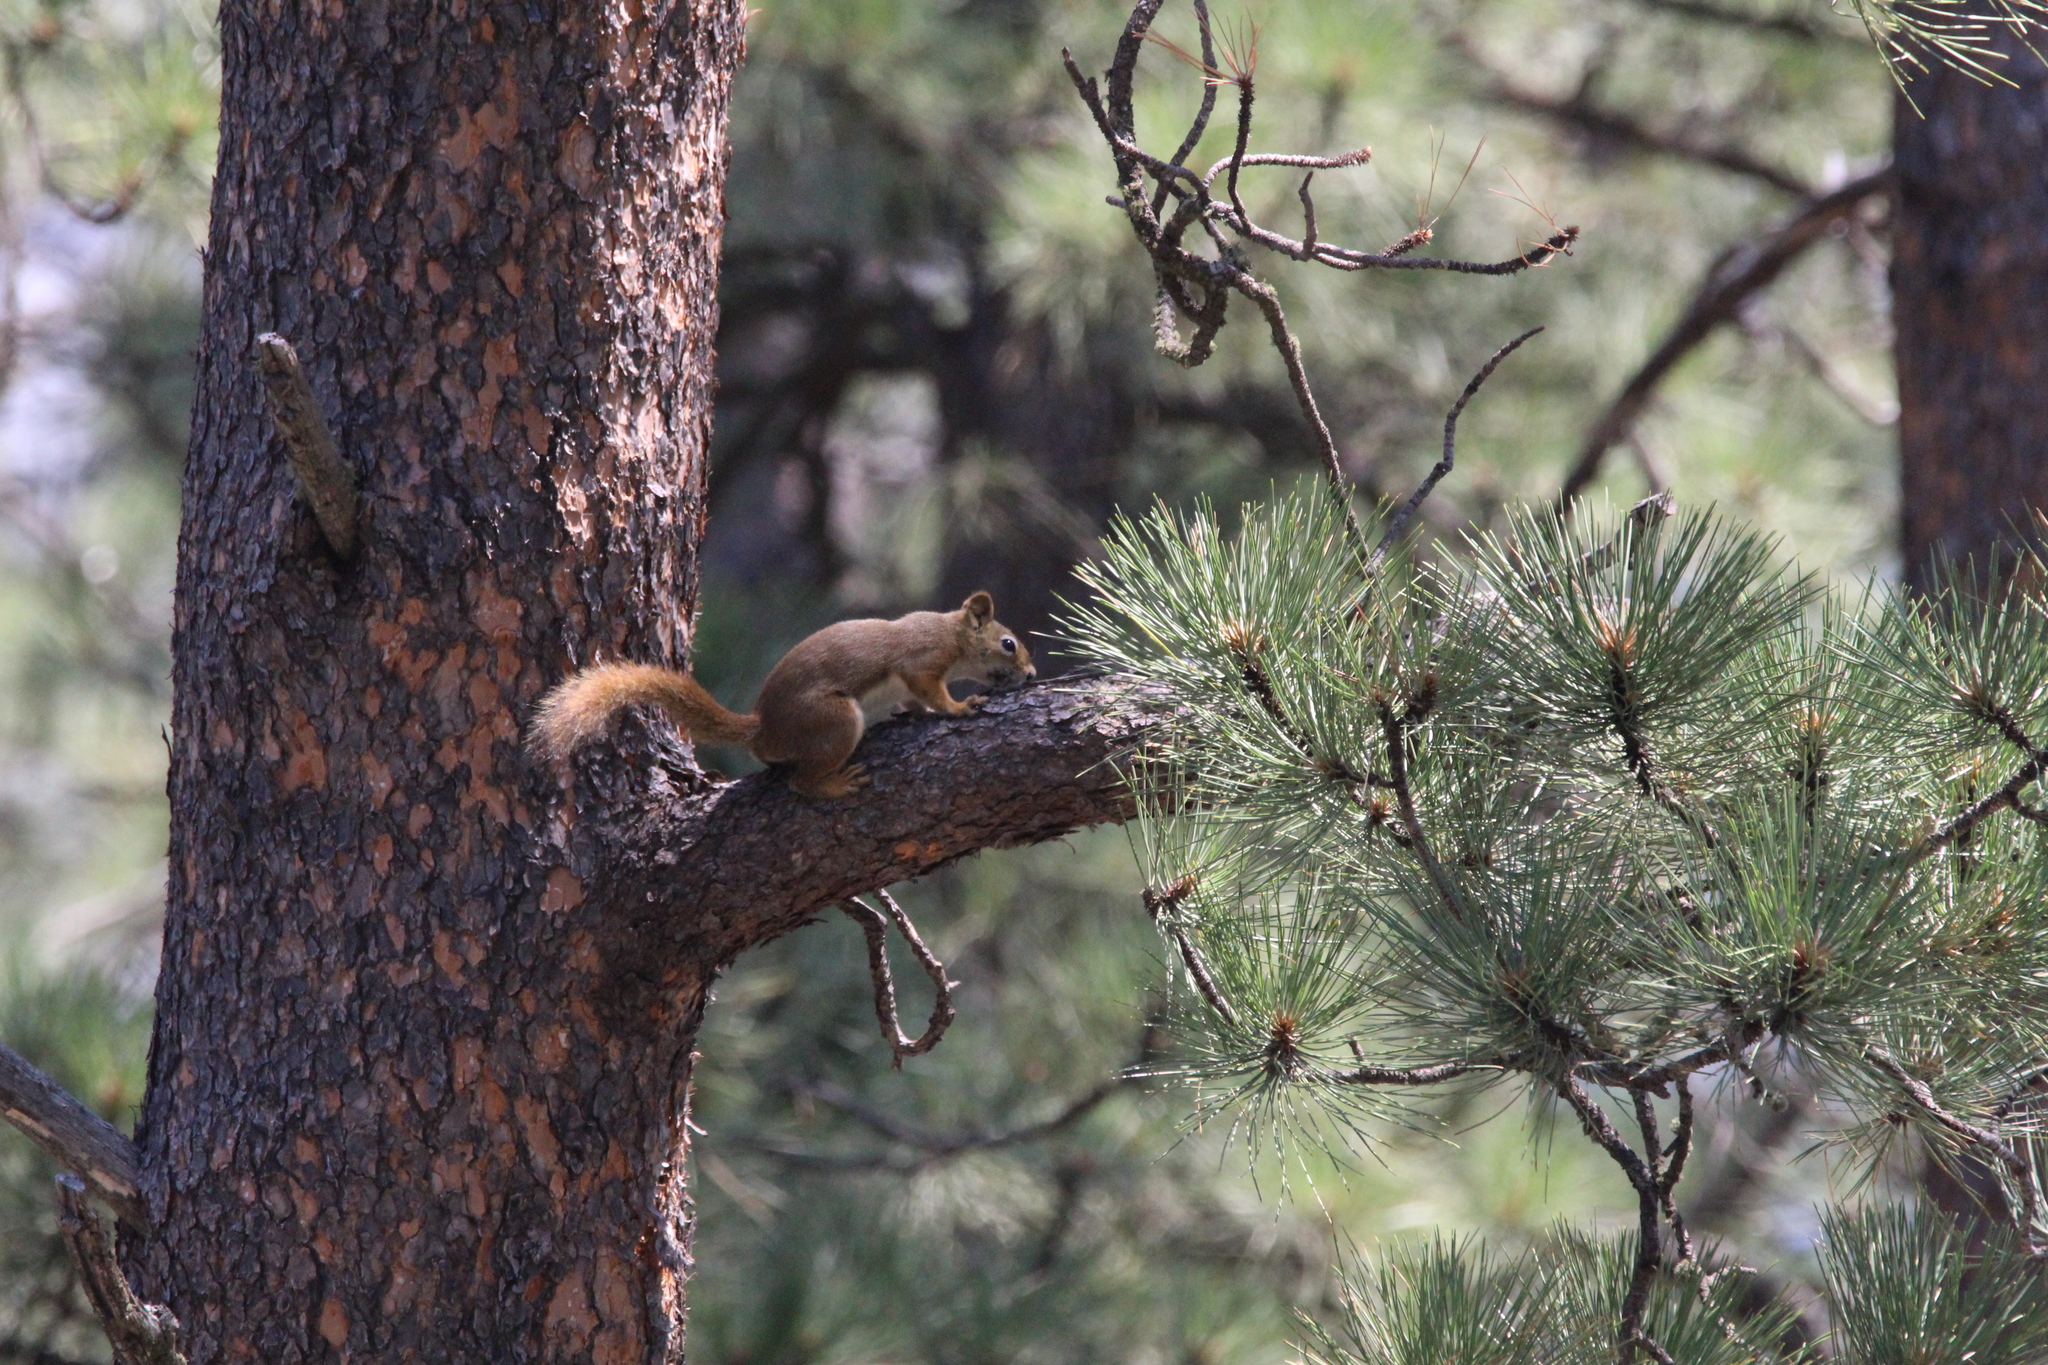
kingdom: Animalia
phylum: Chordata
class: Mammalia
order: Rodentia
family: Sciuridae
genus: Tamiasciurus
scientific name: Tamiasciurus hudsonicus
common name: Red squirrel
